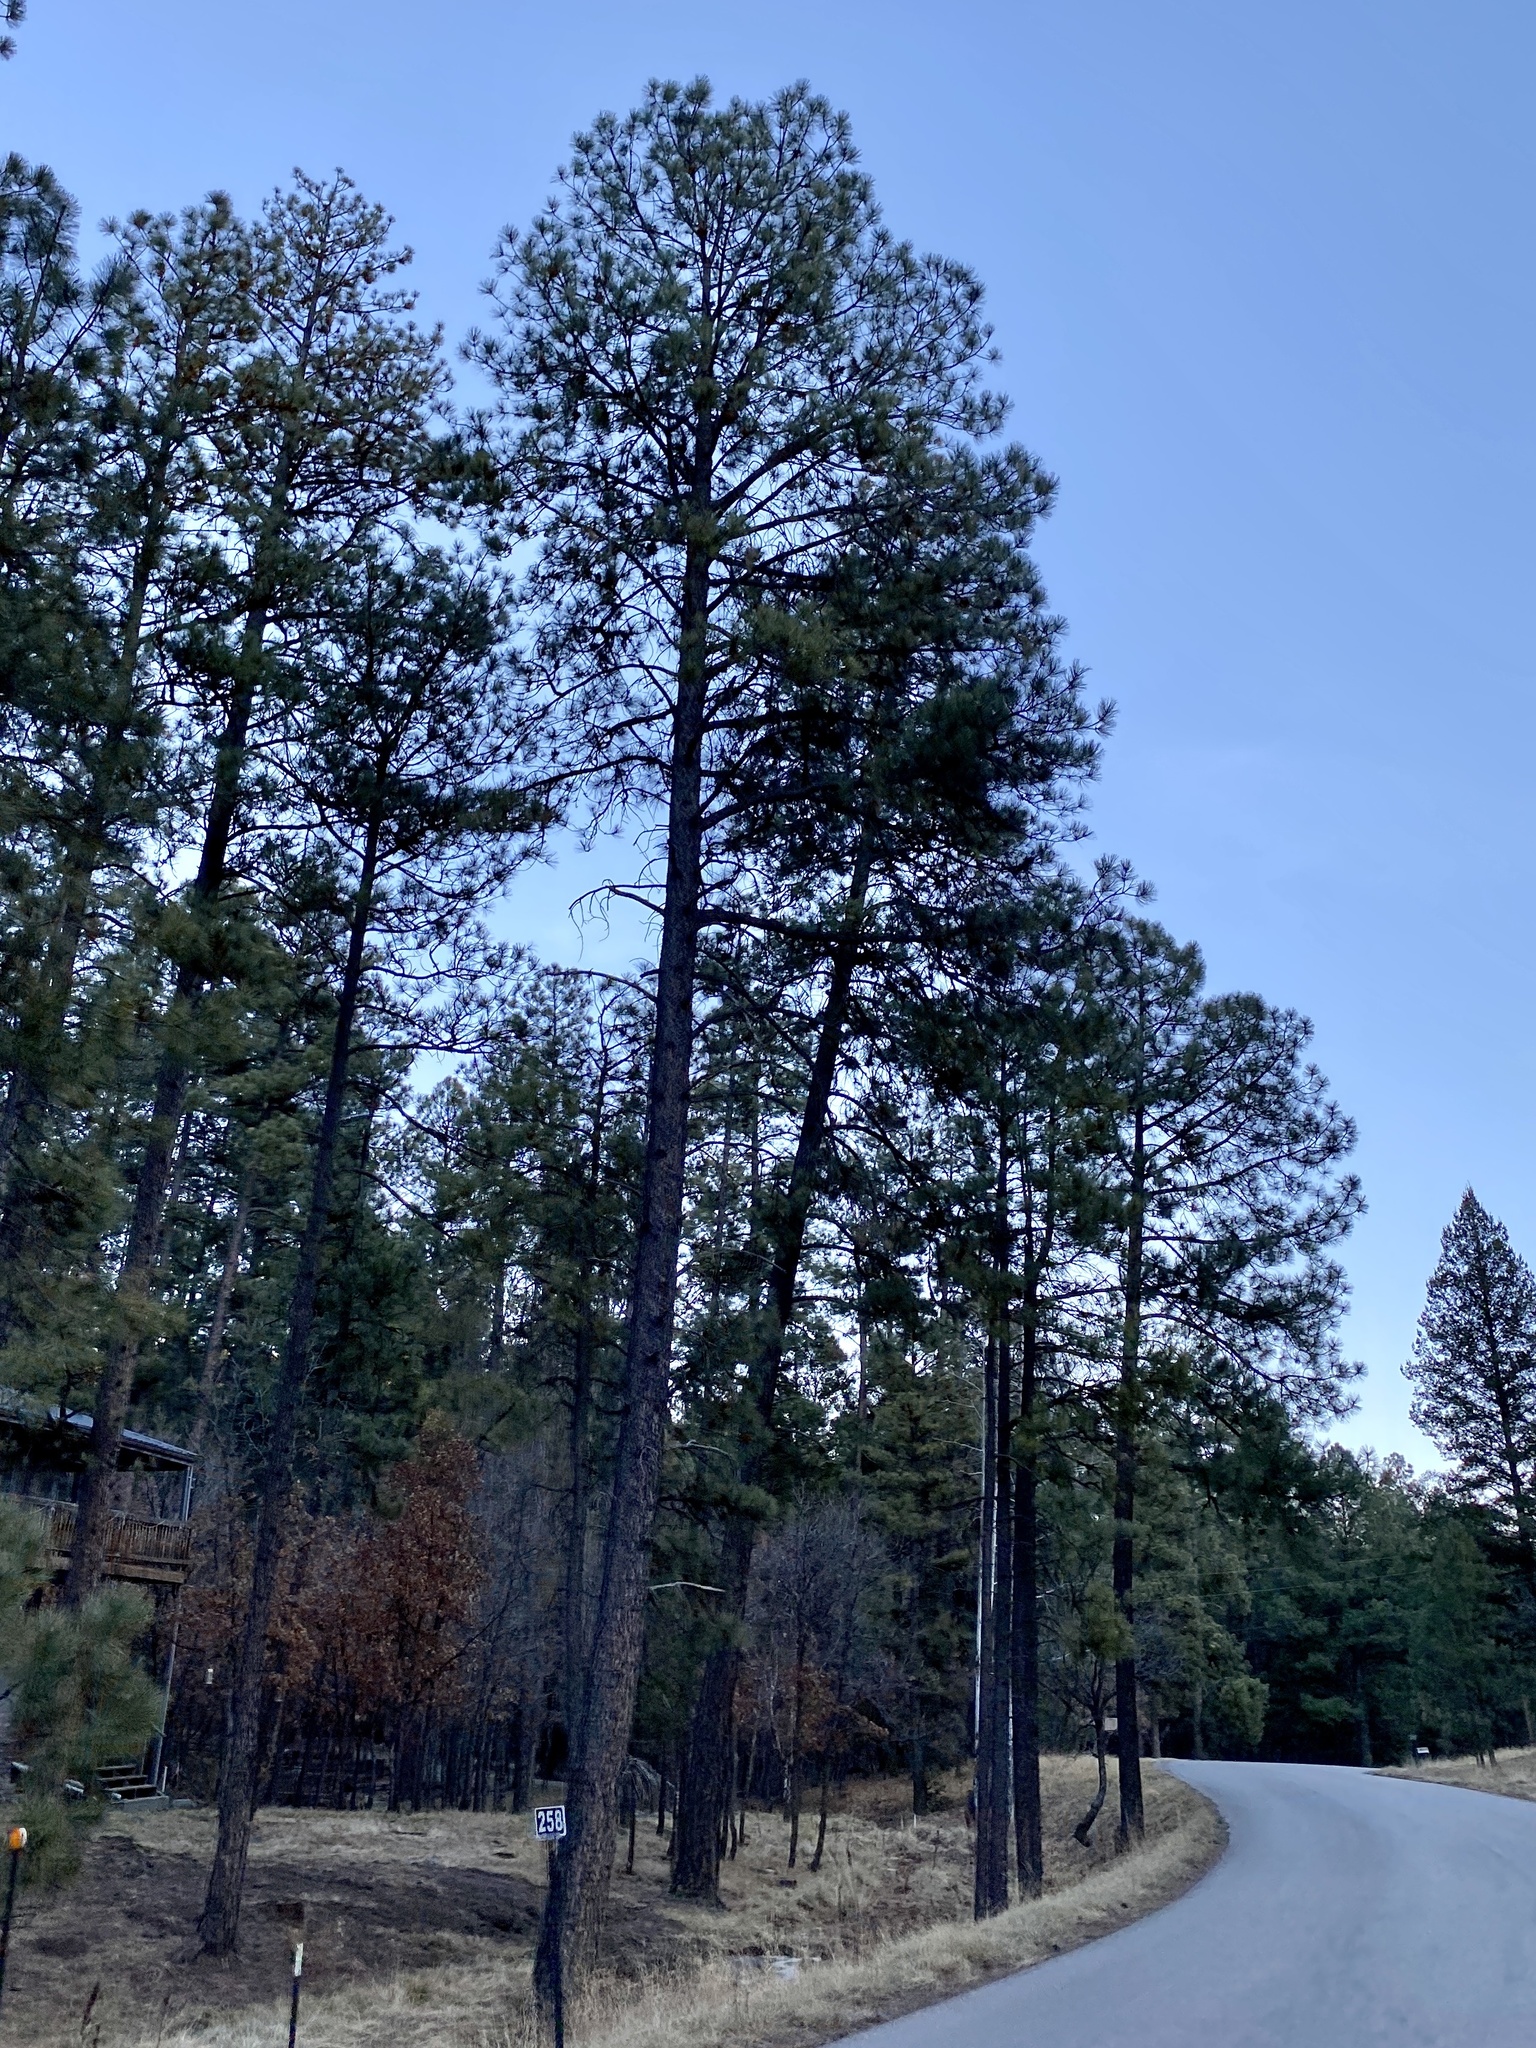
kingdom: Plantae
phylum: Tracheophyta
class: Pinopsida
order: Pinales
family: Pinaceae
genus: Pinus
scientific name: Pinus ponderosa
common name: Western yellow-pine
